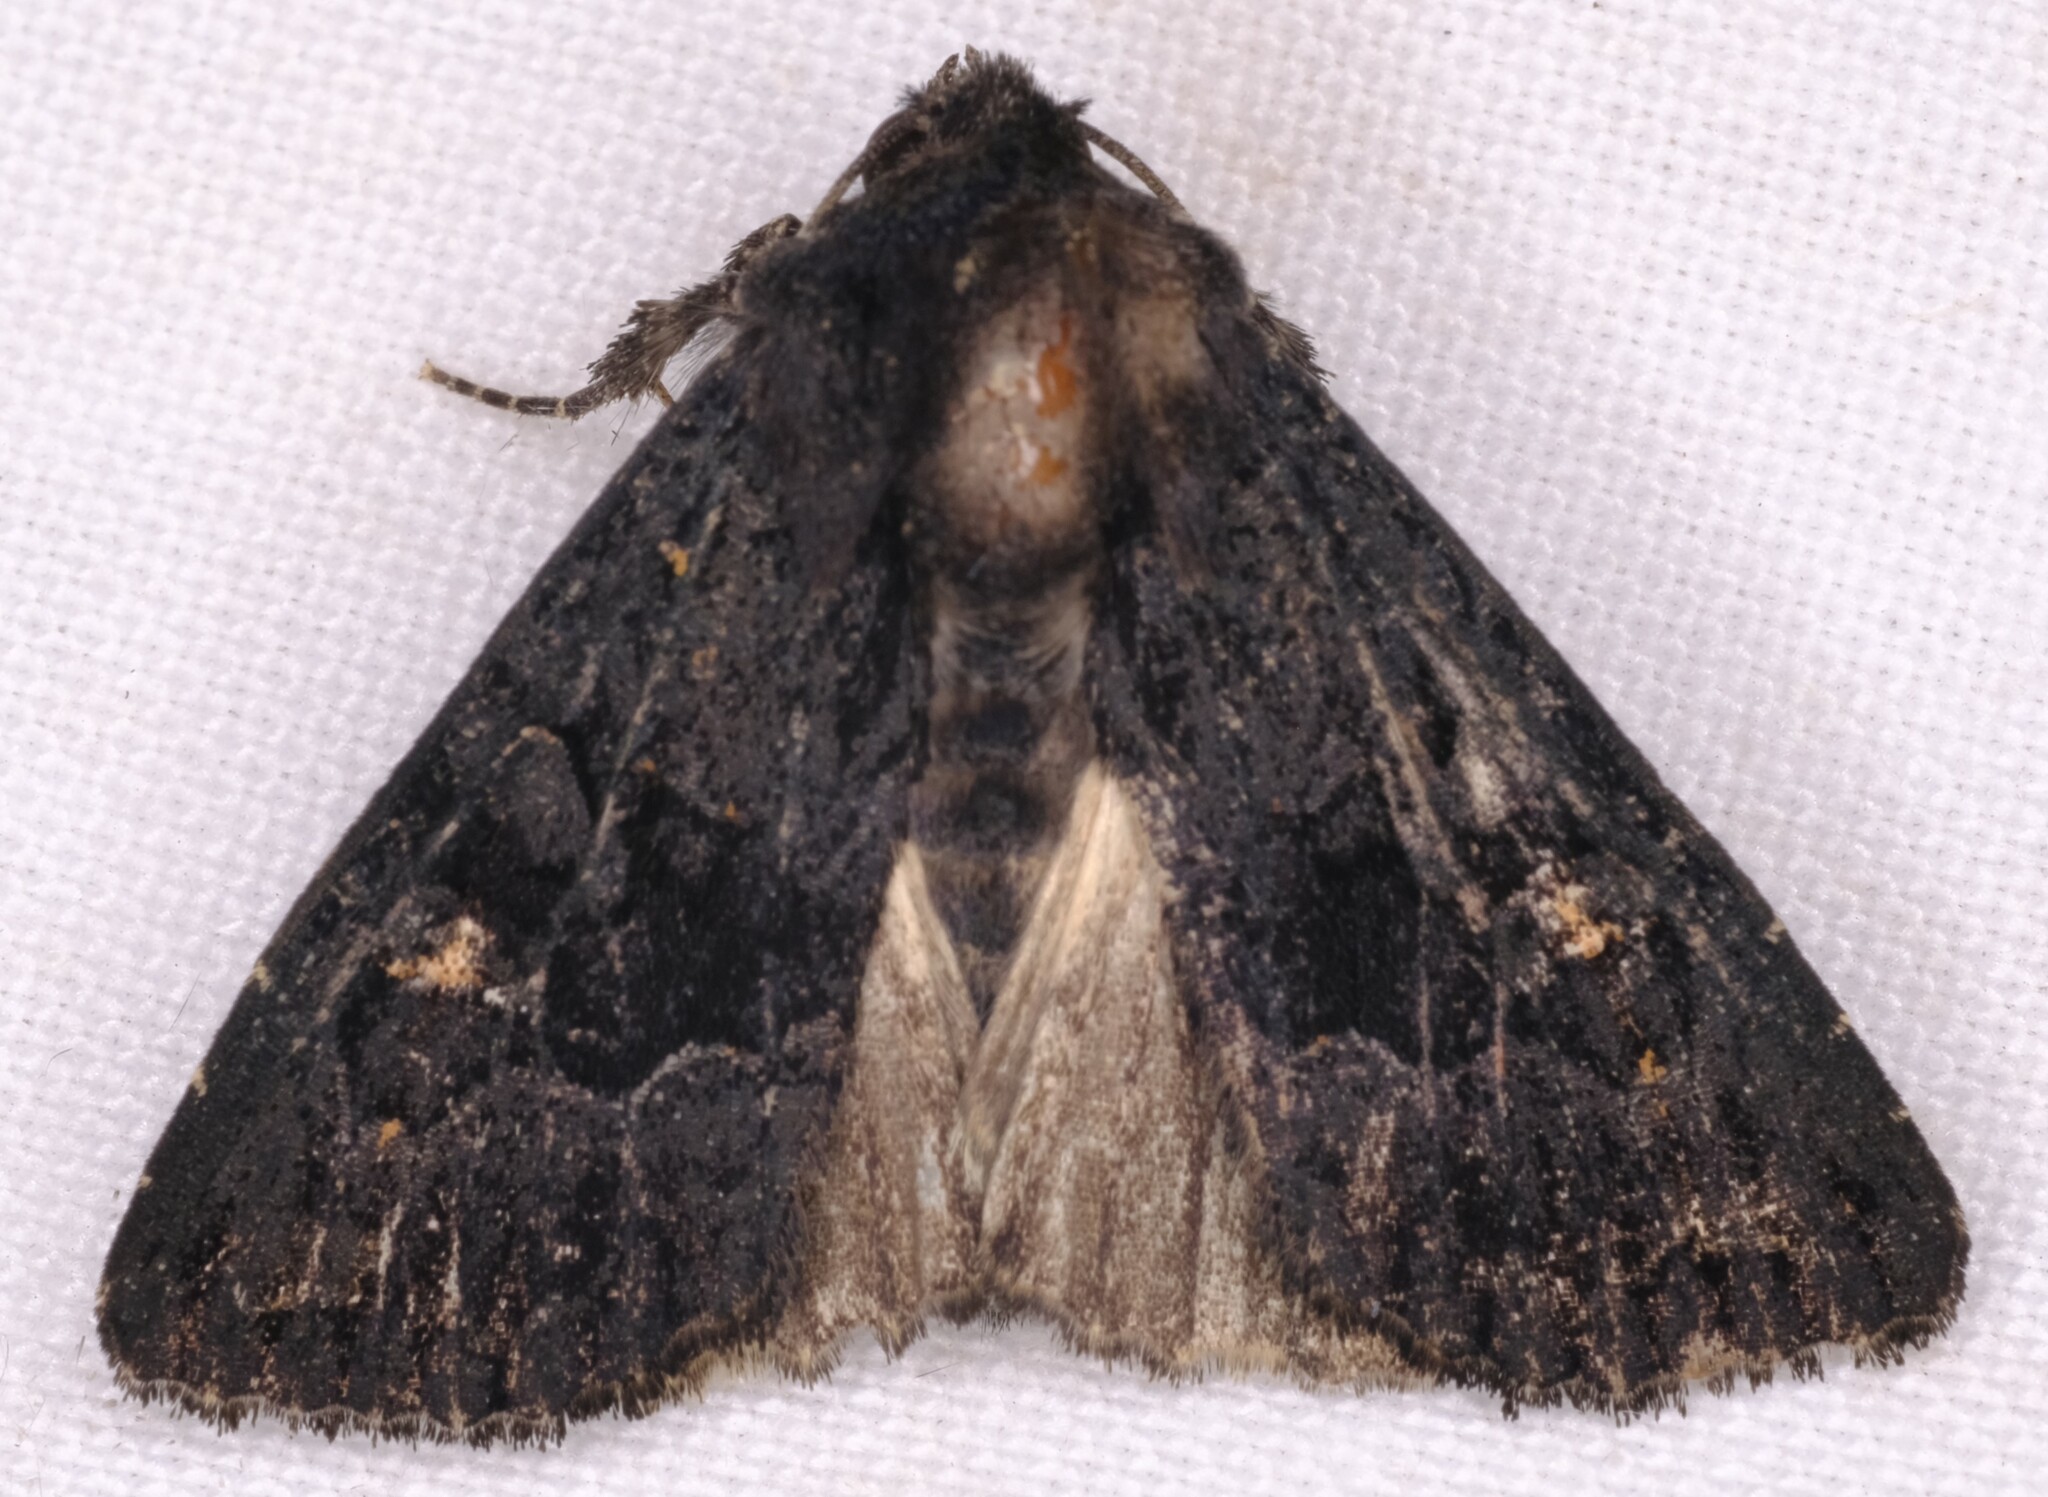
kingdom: Animalia
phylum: Arthropoda
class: Insecta
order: Lepidoptera
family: Noctuidae
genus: Neumichtis
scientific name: Neumichtis nigerrima
